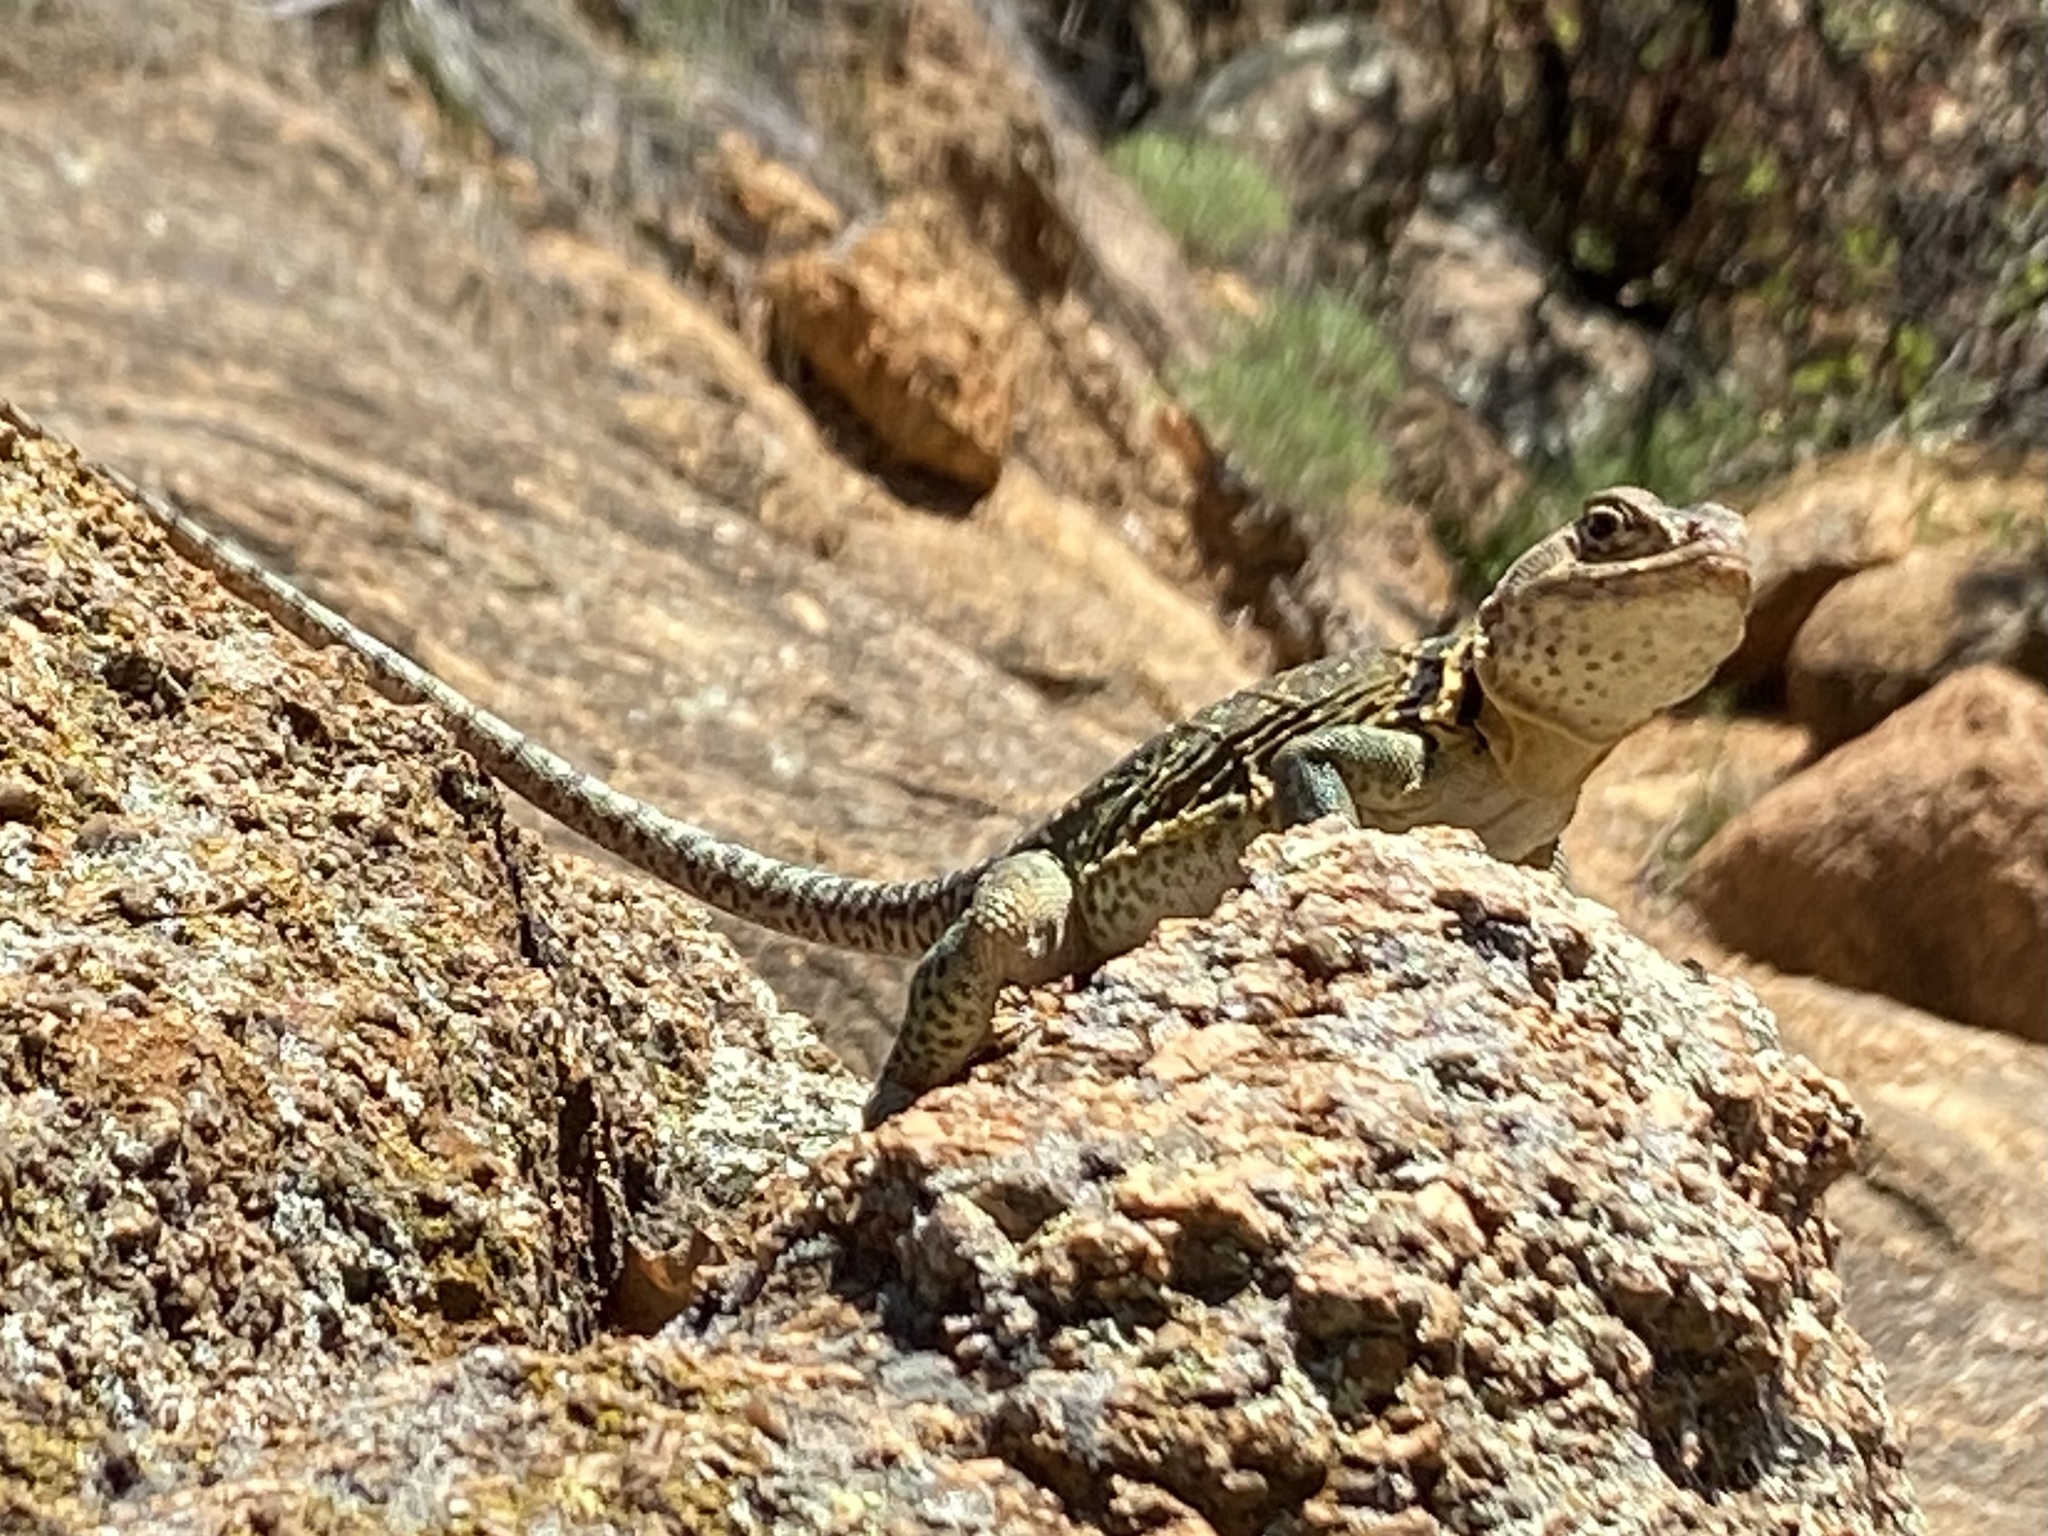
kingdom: Animalia
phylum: Chordata
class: Squamata
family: Crotaphytidae
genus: Crotaphytus
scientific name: Crotaphytus collaris
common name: Collared lizard
